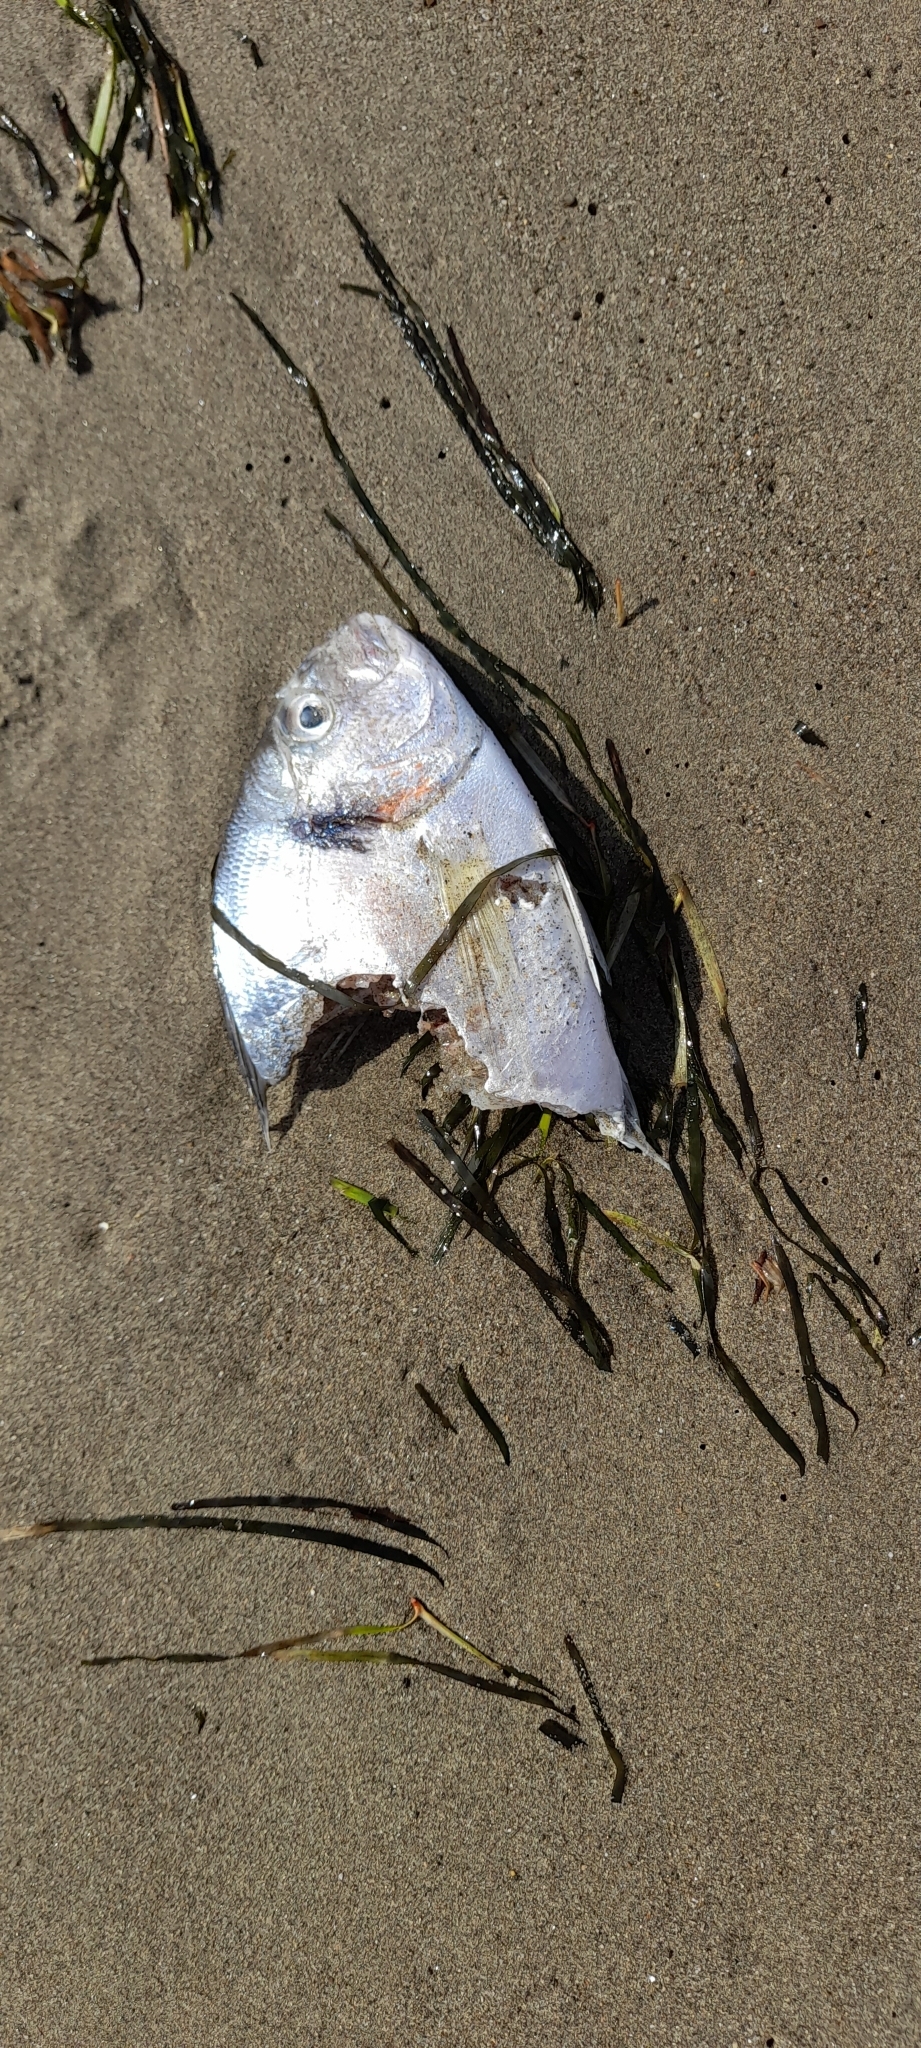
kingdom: Animalia
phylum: Chordata
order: Perciformes
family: Sparidae
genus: Sparus
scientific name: Sparus aurata
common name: Gilthead
